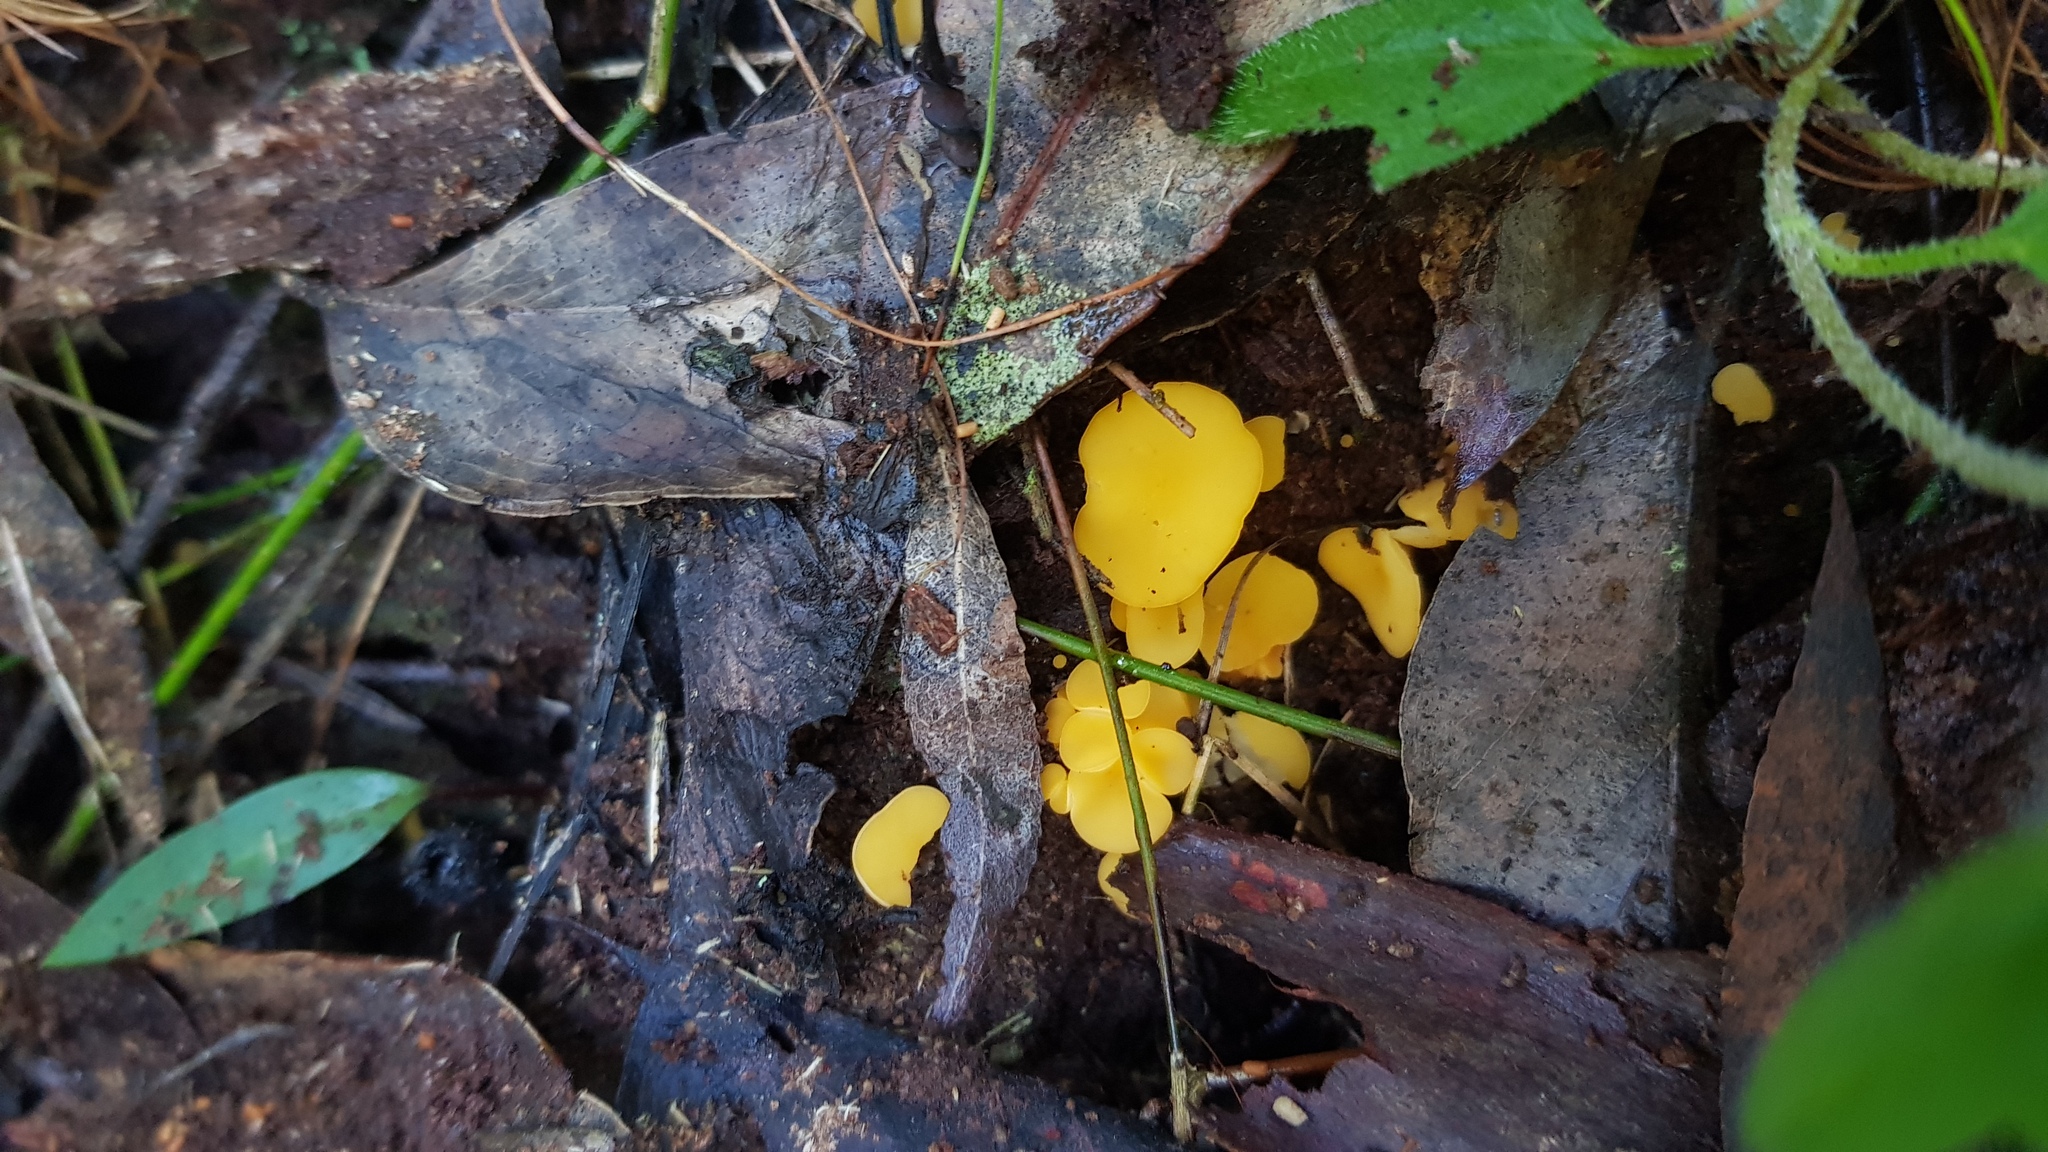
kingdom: Fungi
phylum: Ascomycota
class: Leotiomycetes
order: Helotiales
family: Helotiaceae
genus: Phaeohelotium
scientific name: Phaeohelotium baileyanum
